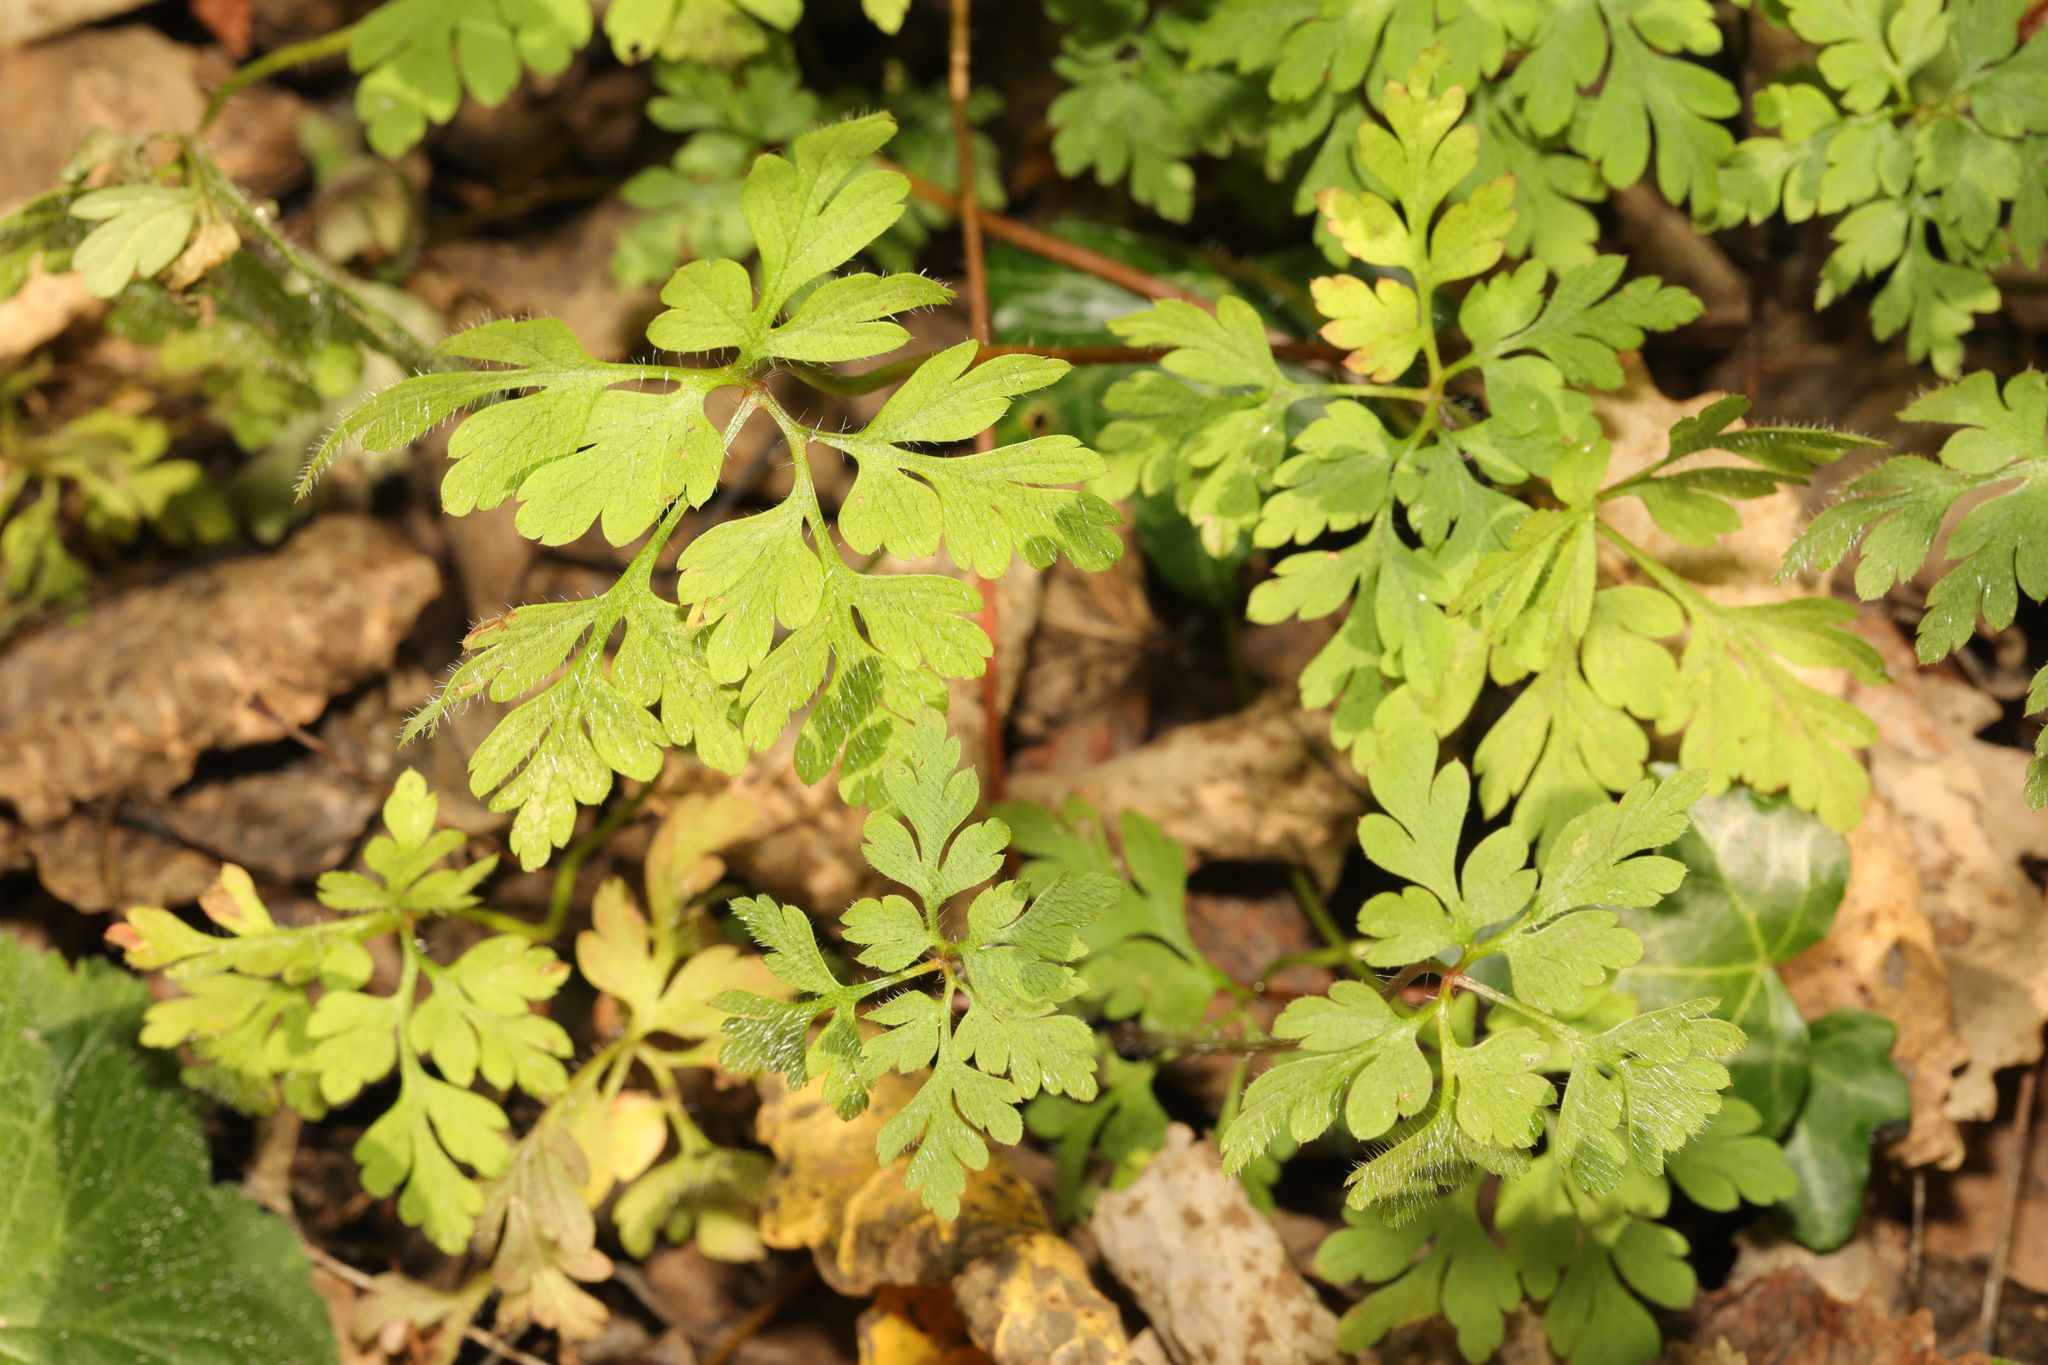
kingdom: Plantae
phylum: Tracheophyta
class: Magnoliopsida
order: Geraniales
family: Geraniaceae
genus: Geranium
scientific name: Geranium robertianum
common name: Herb-robert
